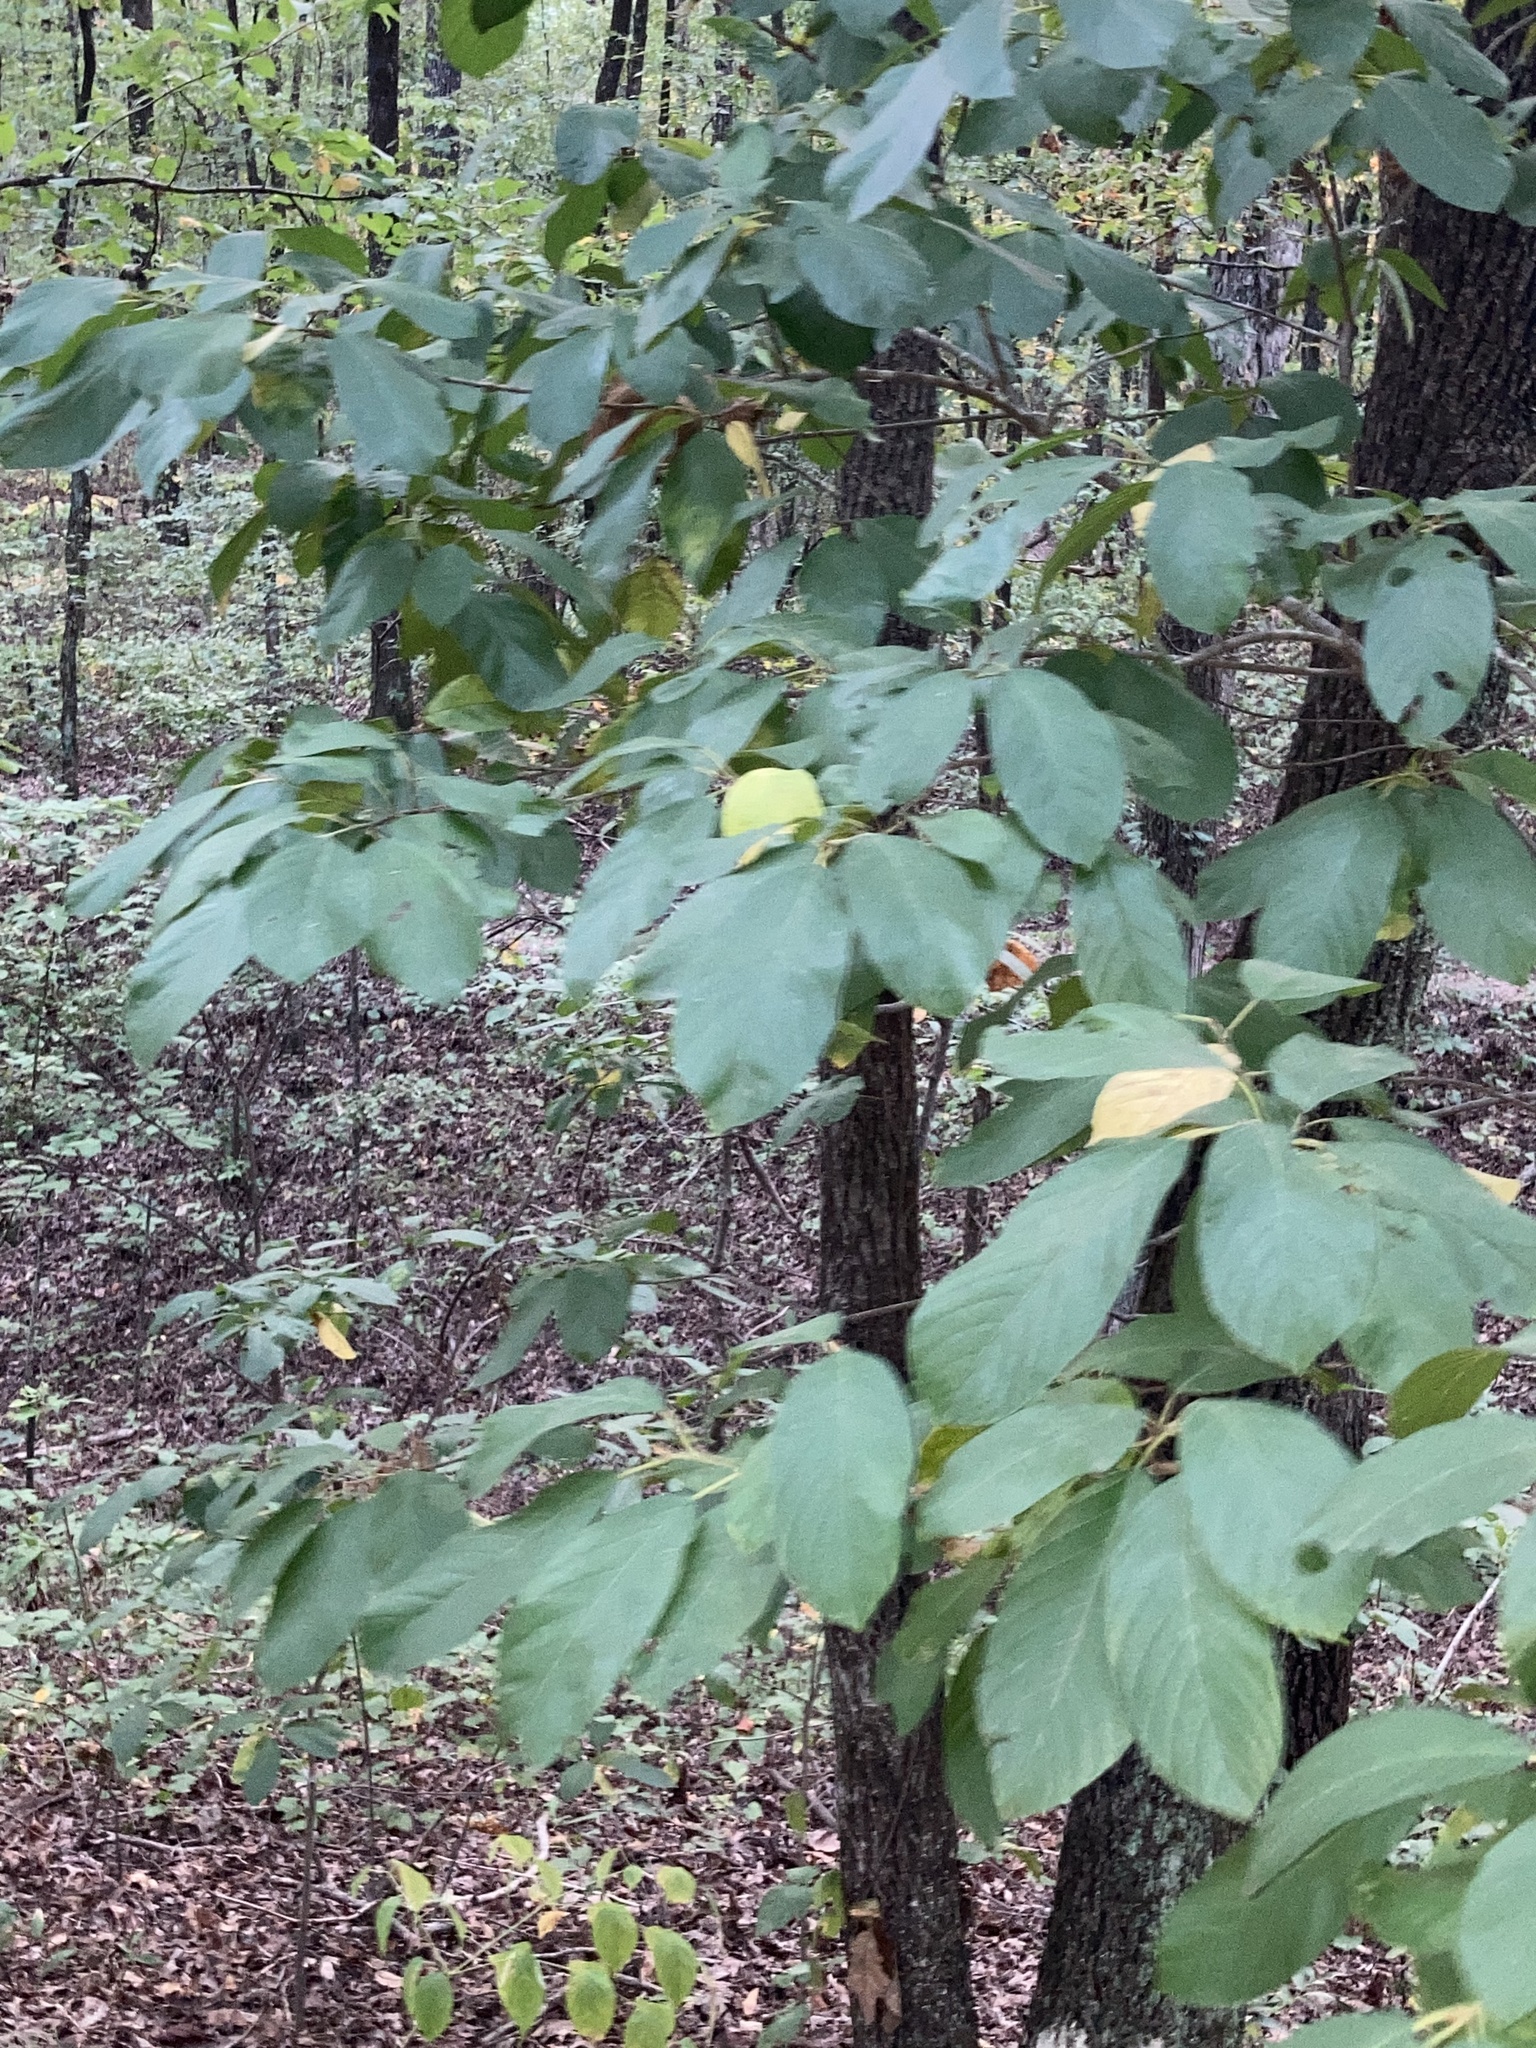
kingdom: Plantae
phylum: Tracheophyta
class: Magnoliopsida
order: Rosales
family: Rhamnaceae
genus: Frangula
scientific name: Frangula caroliniana
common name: Carolina buckthorn
